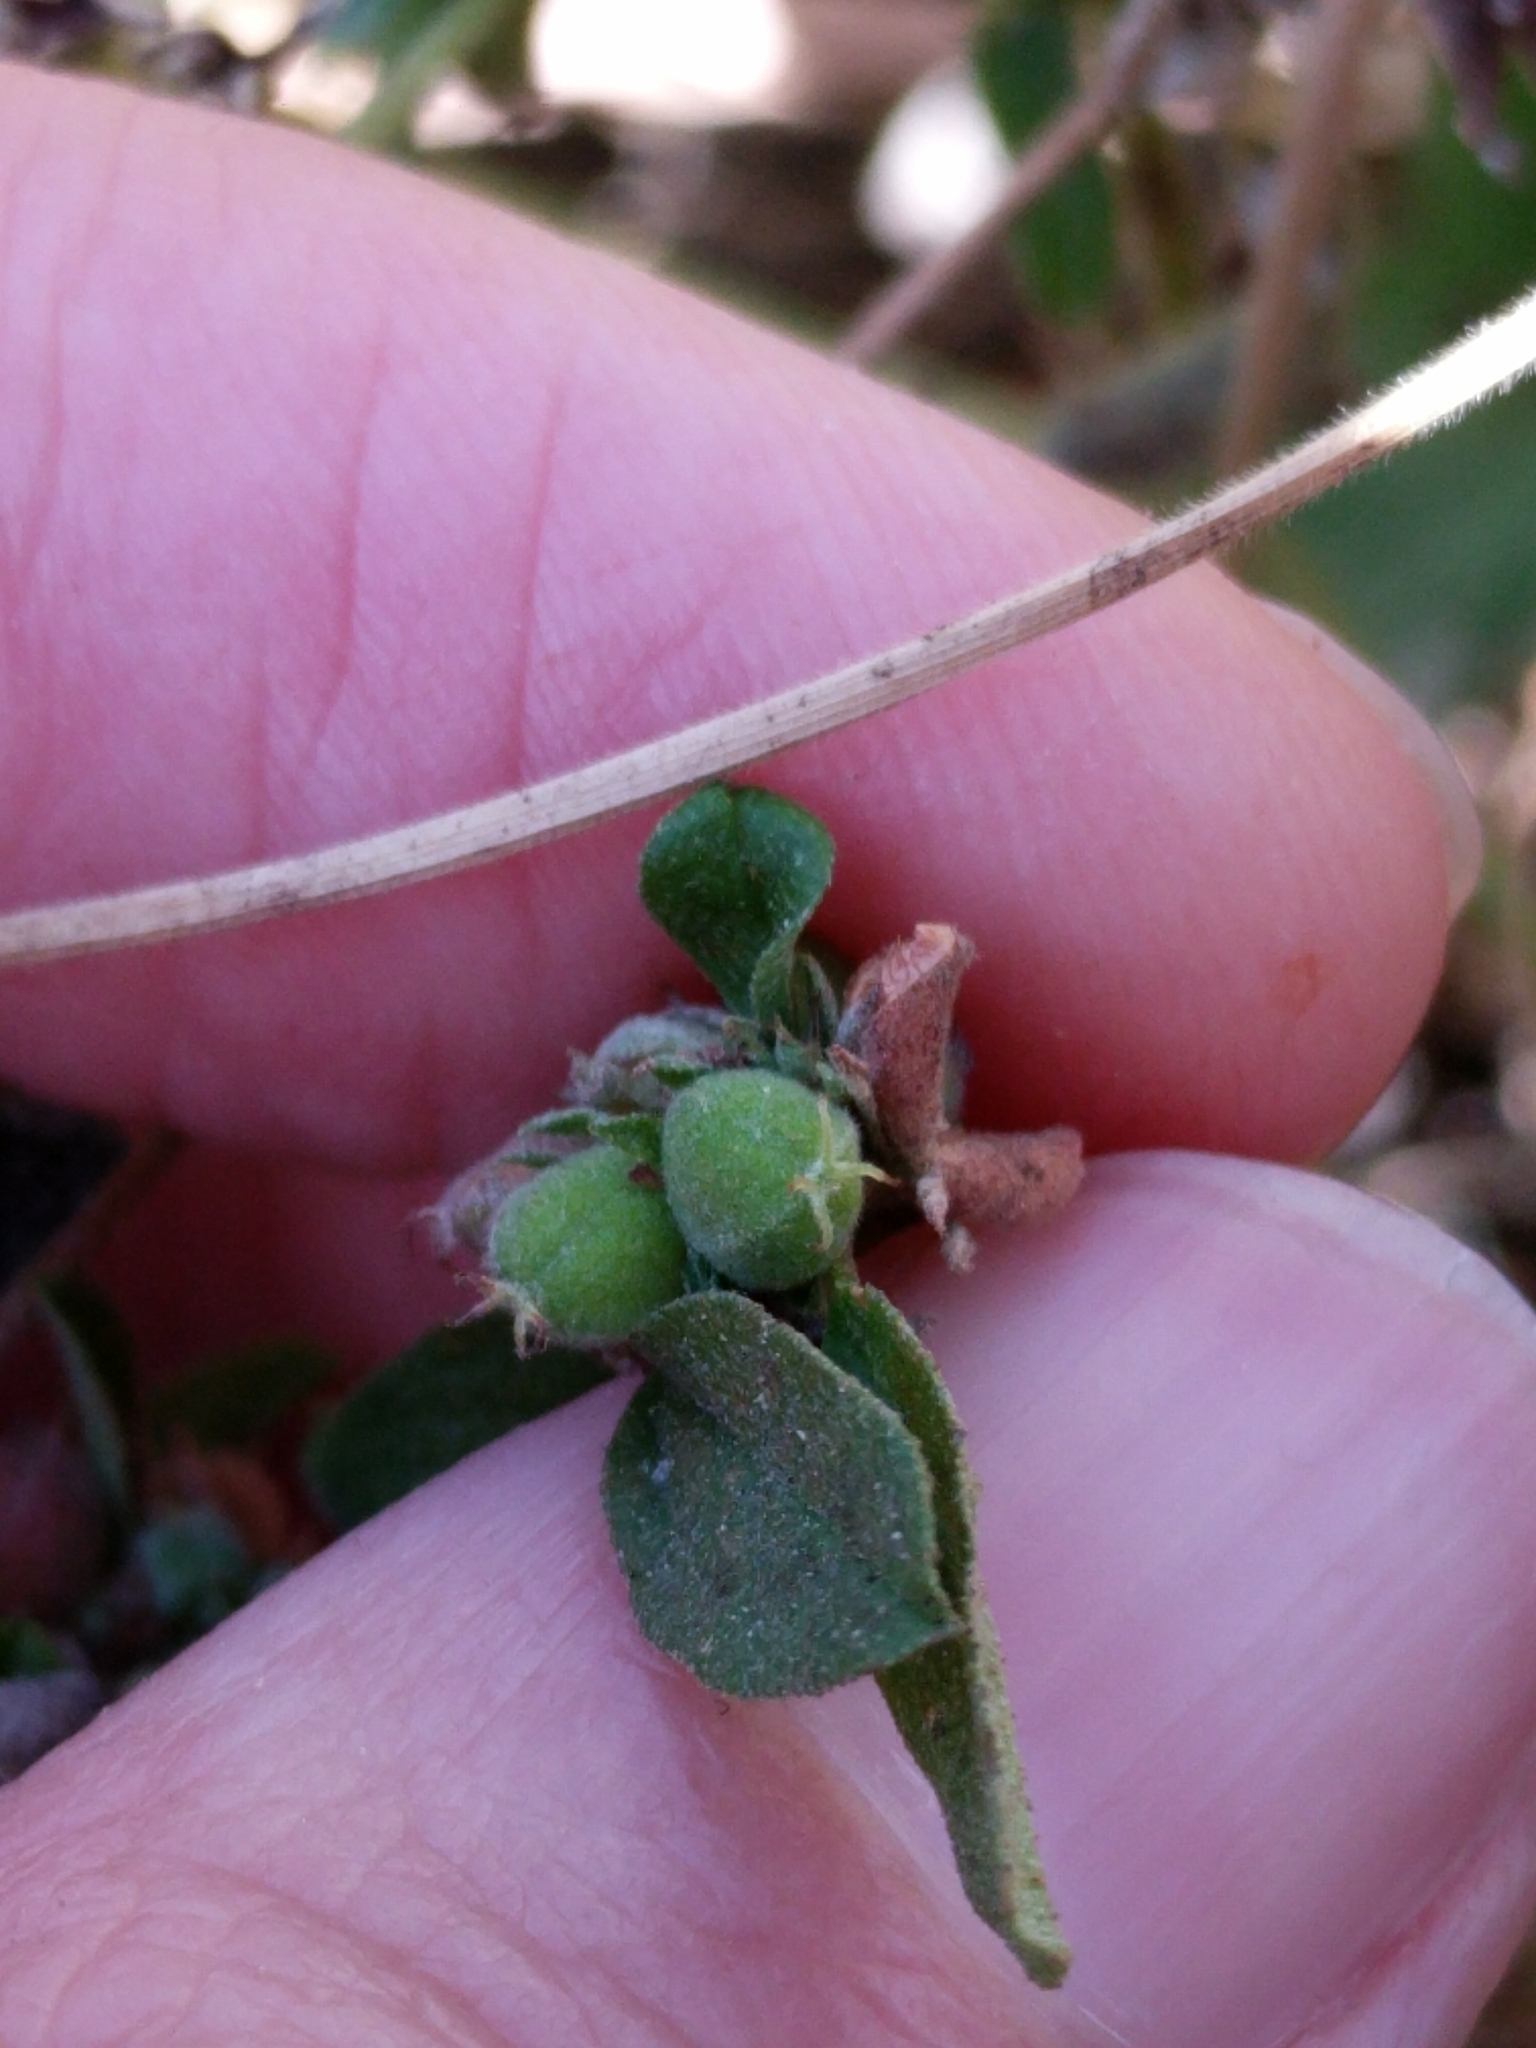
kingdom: Plantae
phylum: Tracheophyta
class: Magnoliopsida
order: Malpighiales
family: Euphorbiaceae
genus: Croton
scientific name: Croton monanthogynus
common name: One-seed croton
